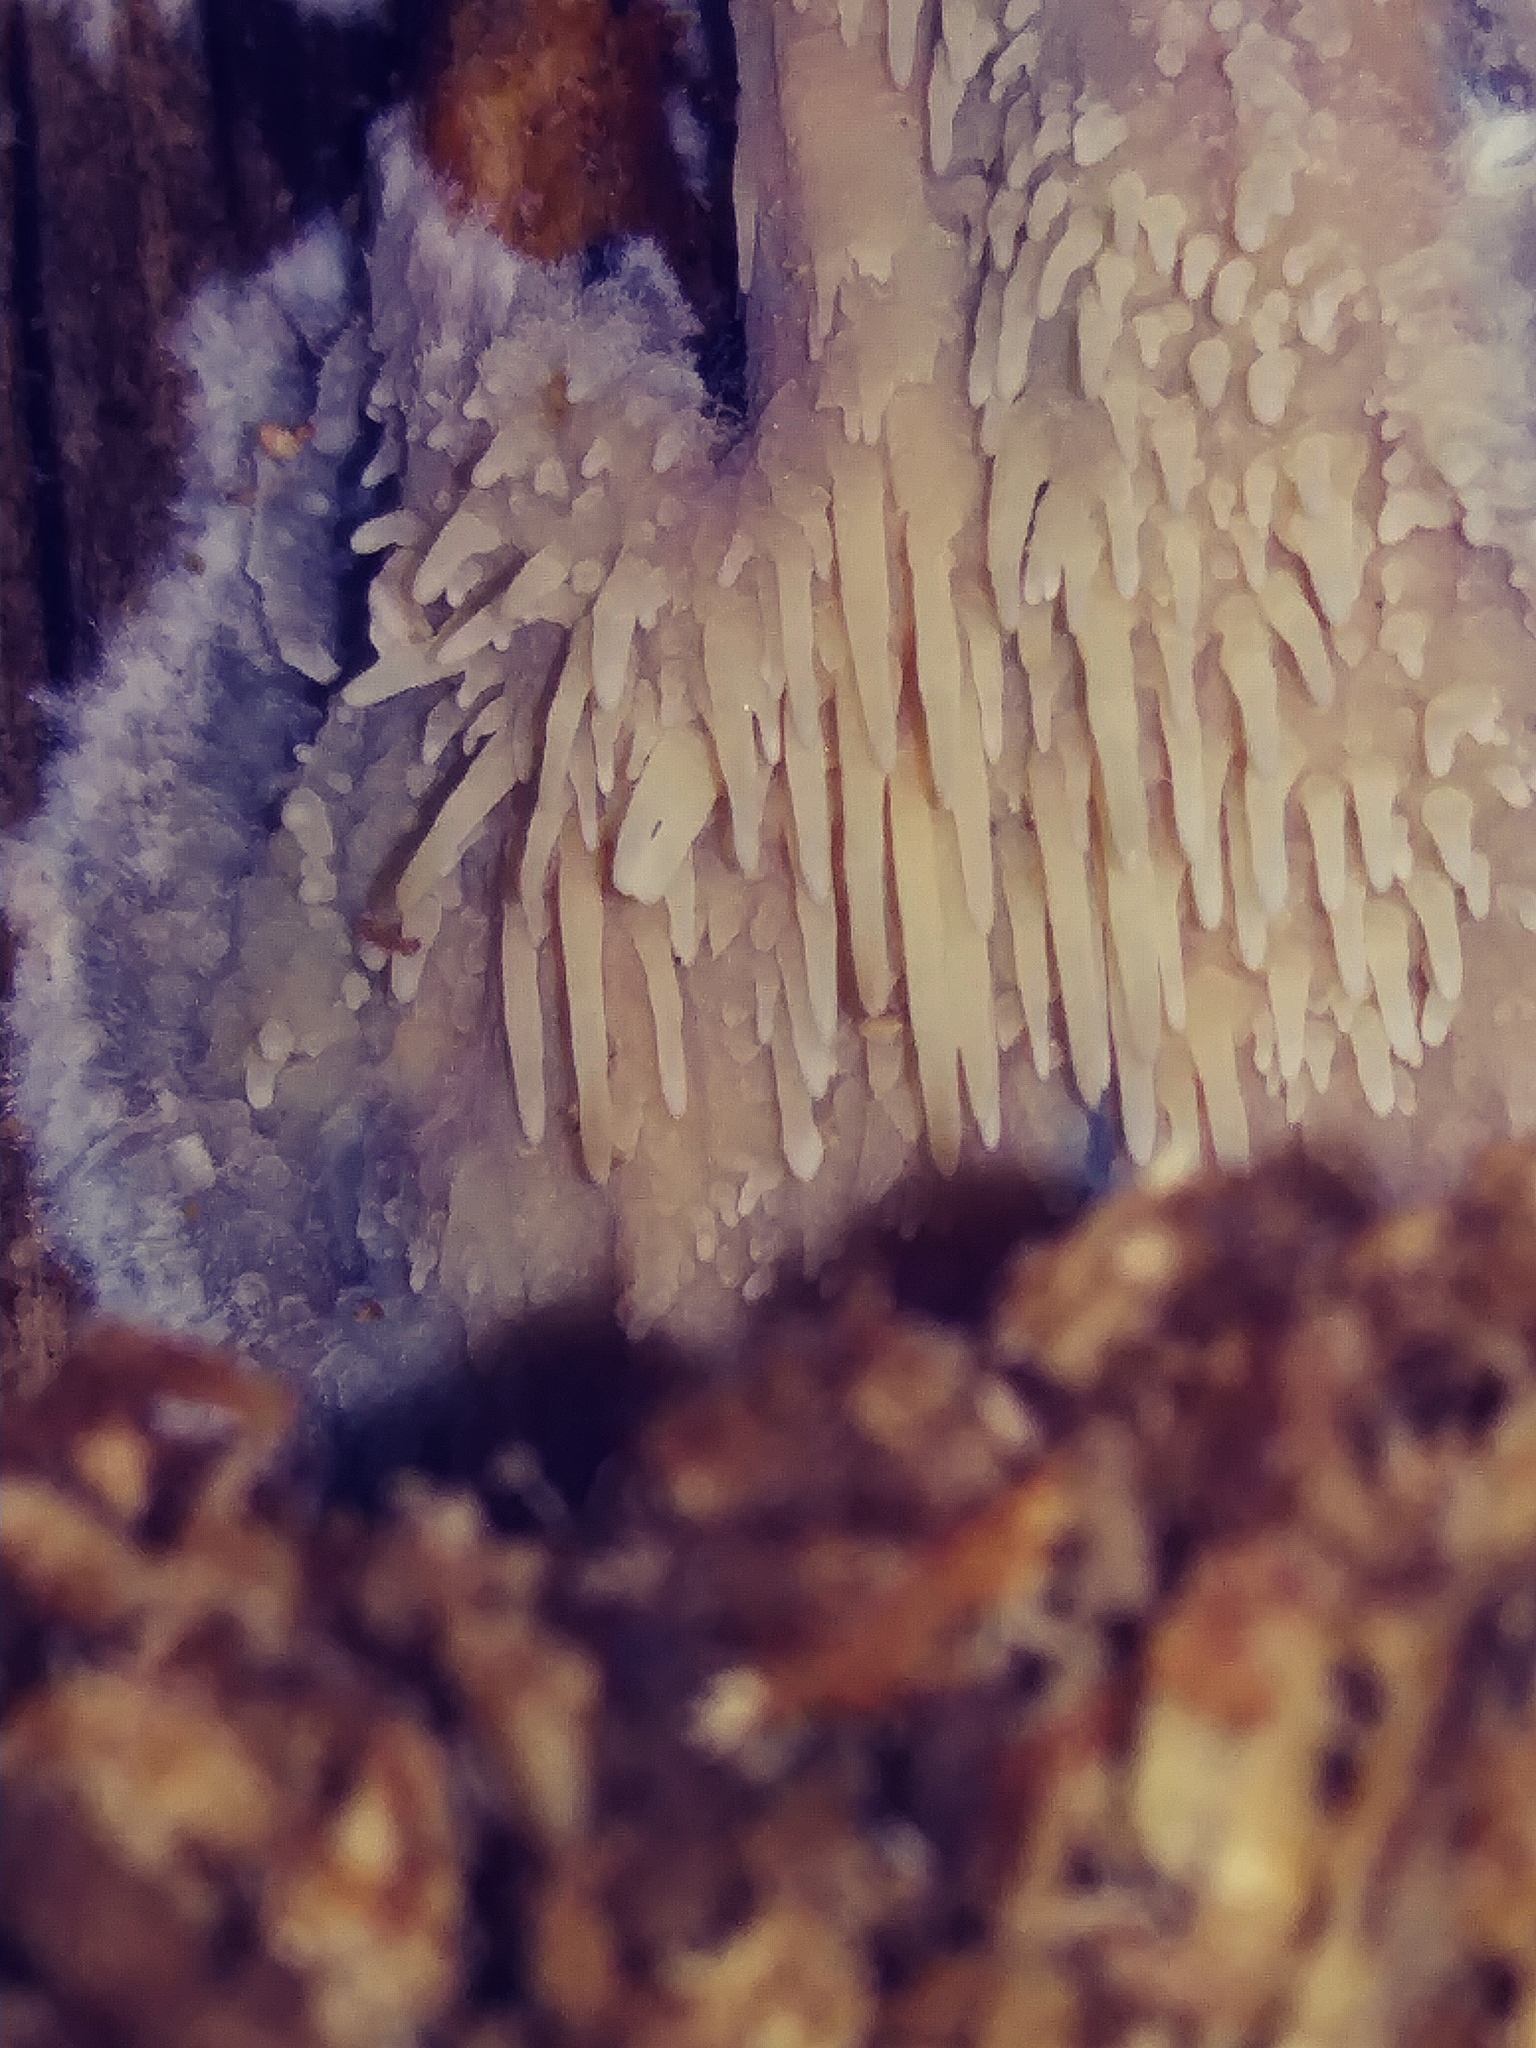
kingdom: Fungi
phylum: Basidiomycota
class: Agaricomycetes
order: Agaricales
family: Radulomycetaceae
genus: Radulomyces
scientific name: Radulomyces copelandii
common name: Asian beauty
